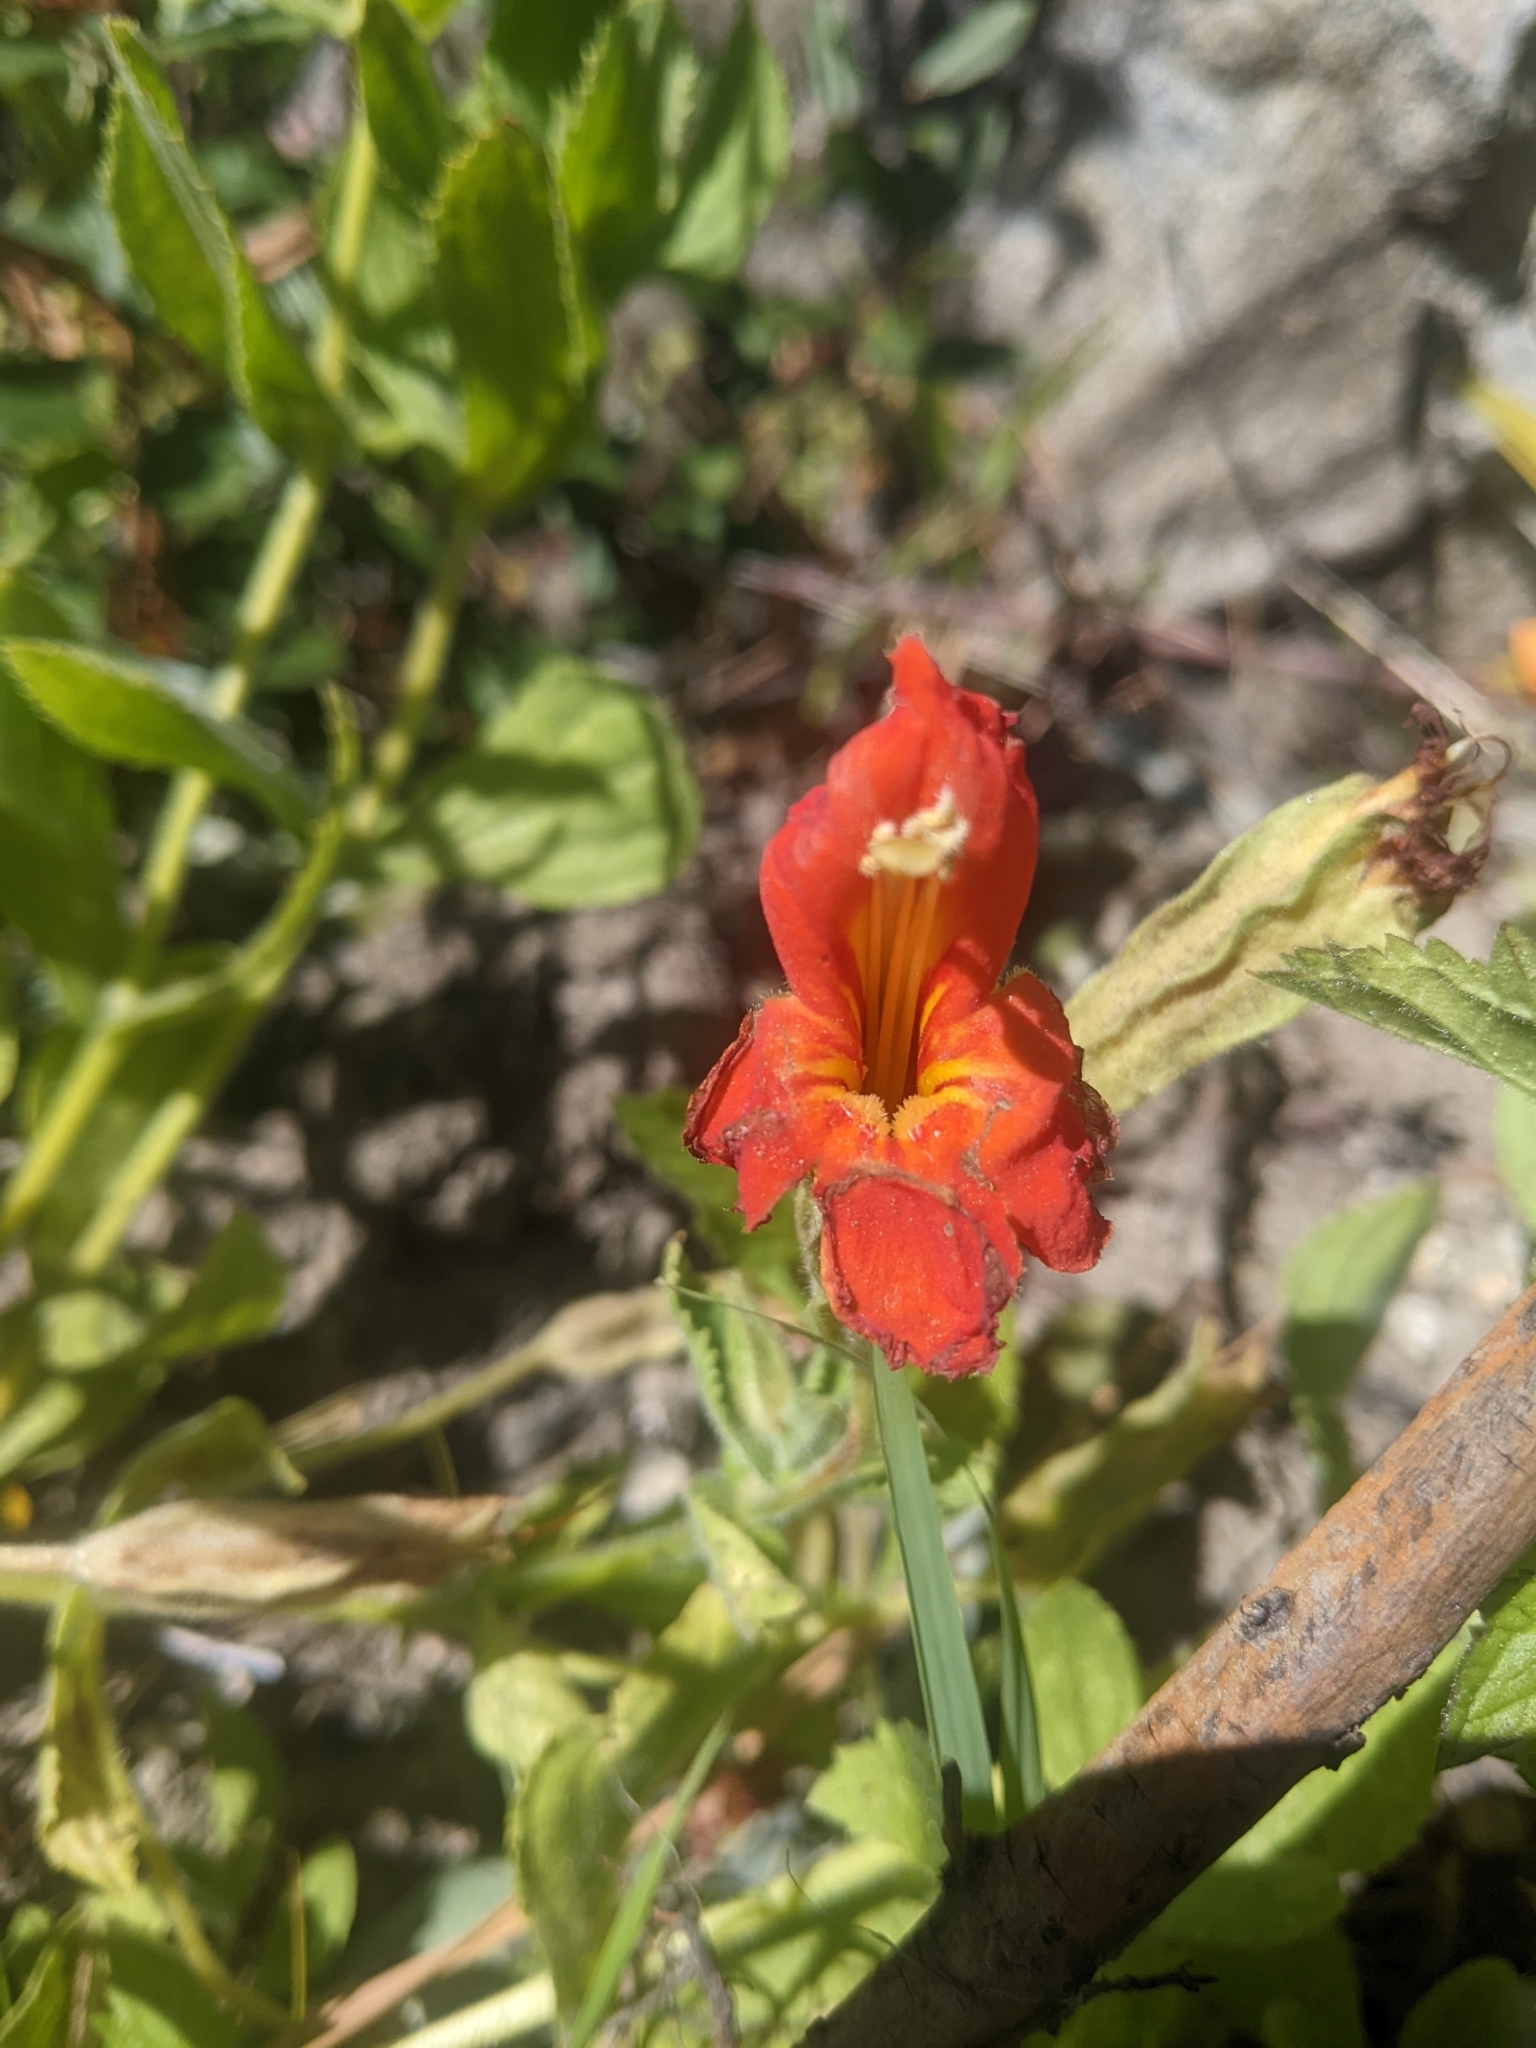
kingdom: Plantae
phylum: Tracheophyta
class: Magnoliopsida
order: Lamiales
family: Phrymaceae
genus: Erythranthe
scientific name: Erythranthe cardinalis
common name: Scarlet monkey-flower
